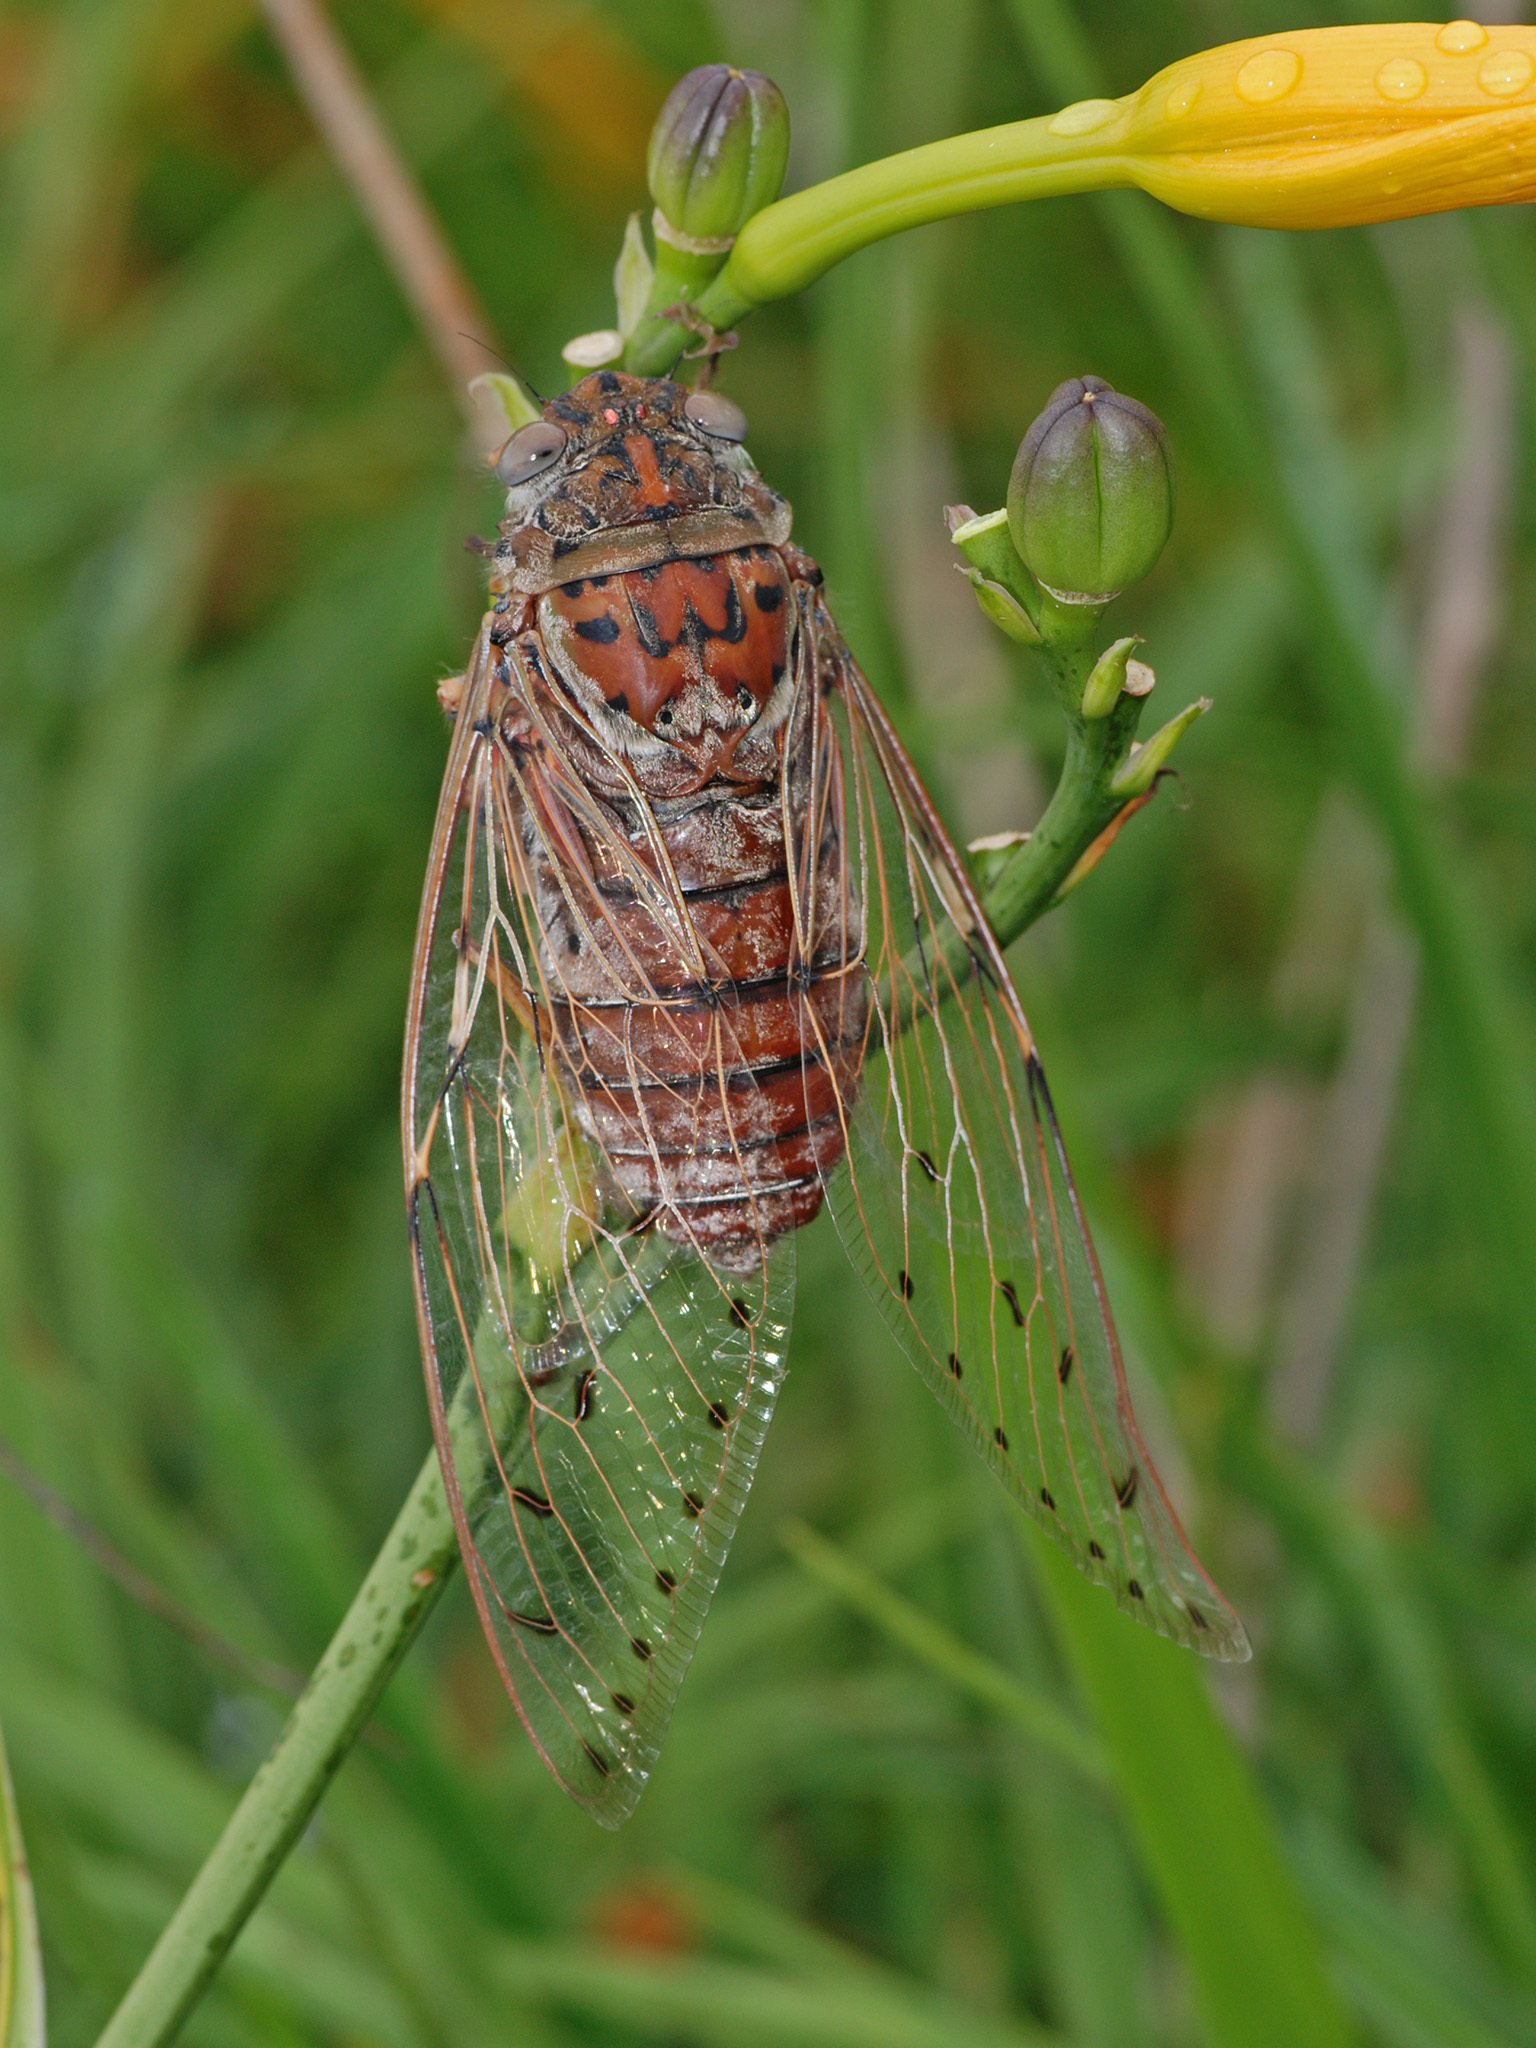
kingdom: Animalia
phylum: Arthropoda
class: Insecta
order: Hemiptera
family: Cicadidae
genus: Megapomponia
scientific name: Megapomponia imperatoria
